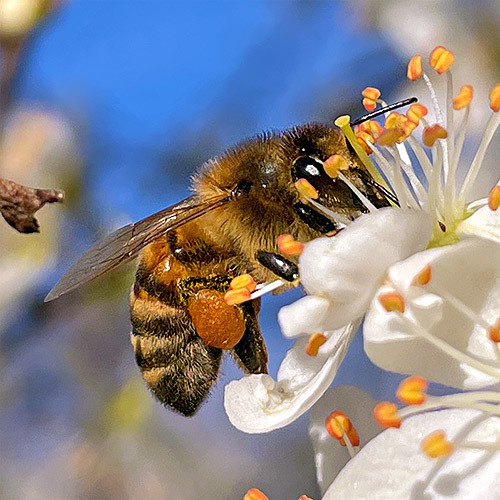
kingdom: Animalia
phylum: Arthropoda
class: Insecta
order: Hymenoptera
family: Apidae
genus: Apis
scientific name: Apis mellifera
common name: Honey bee
